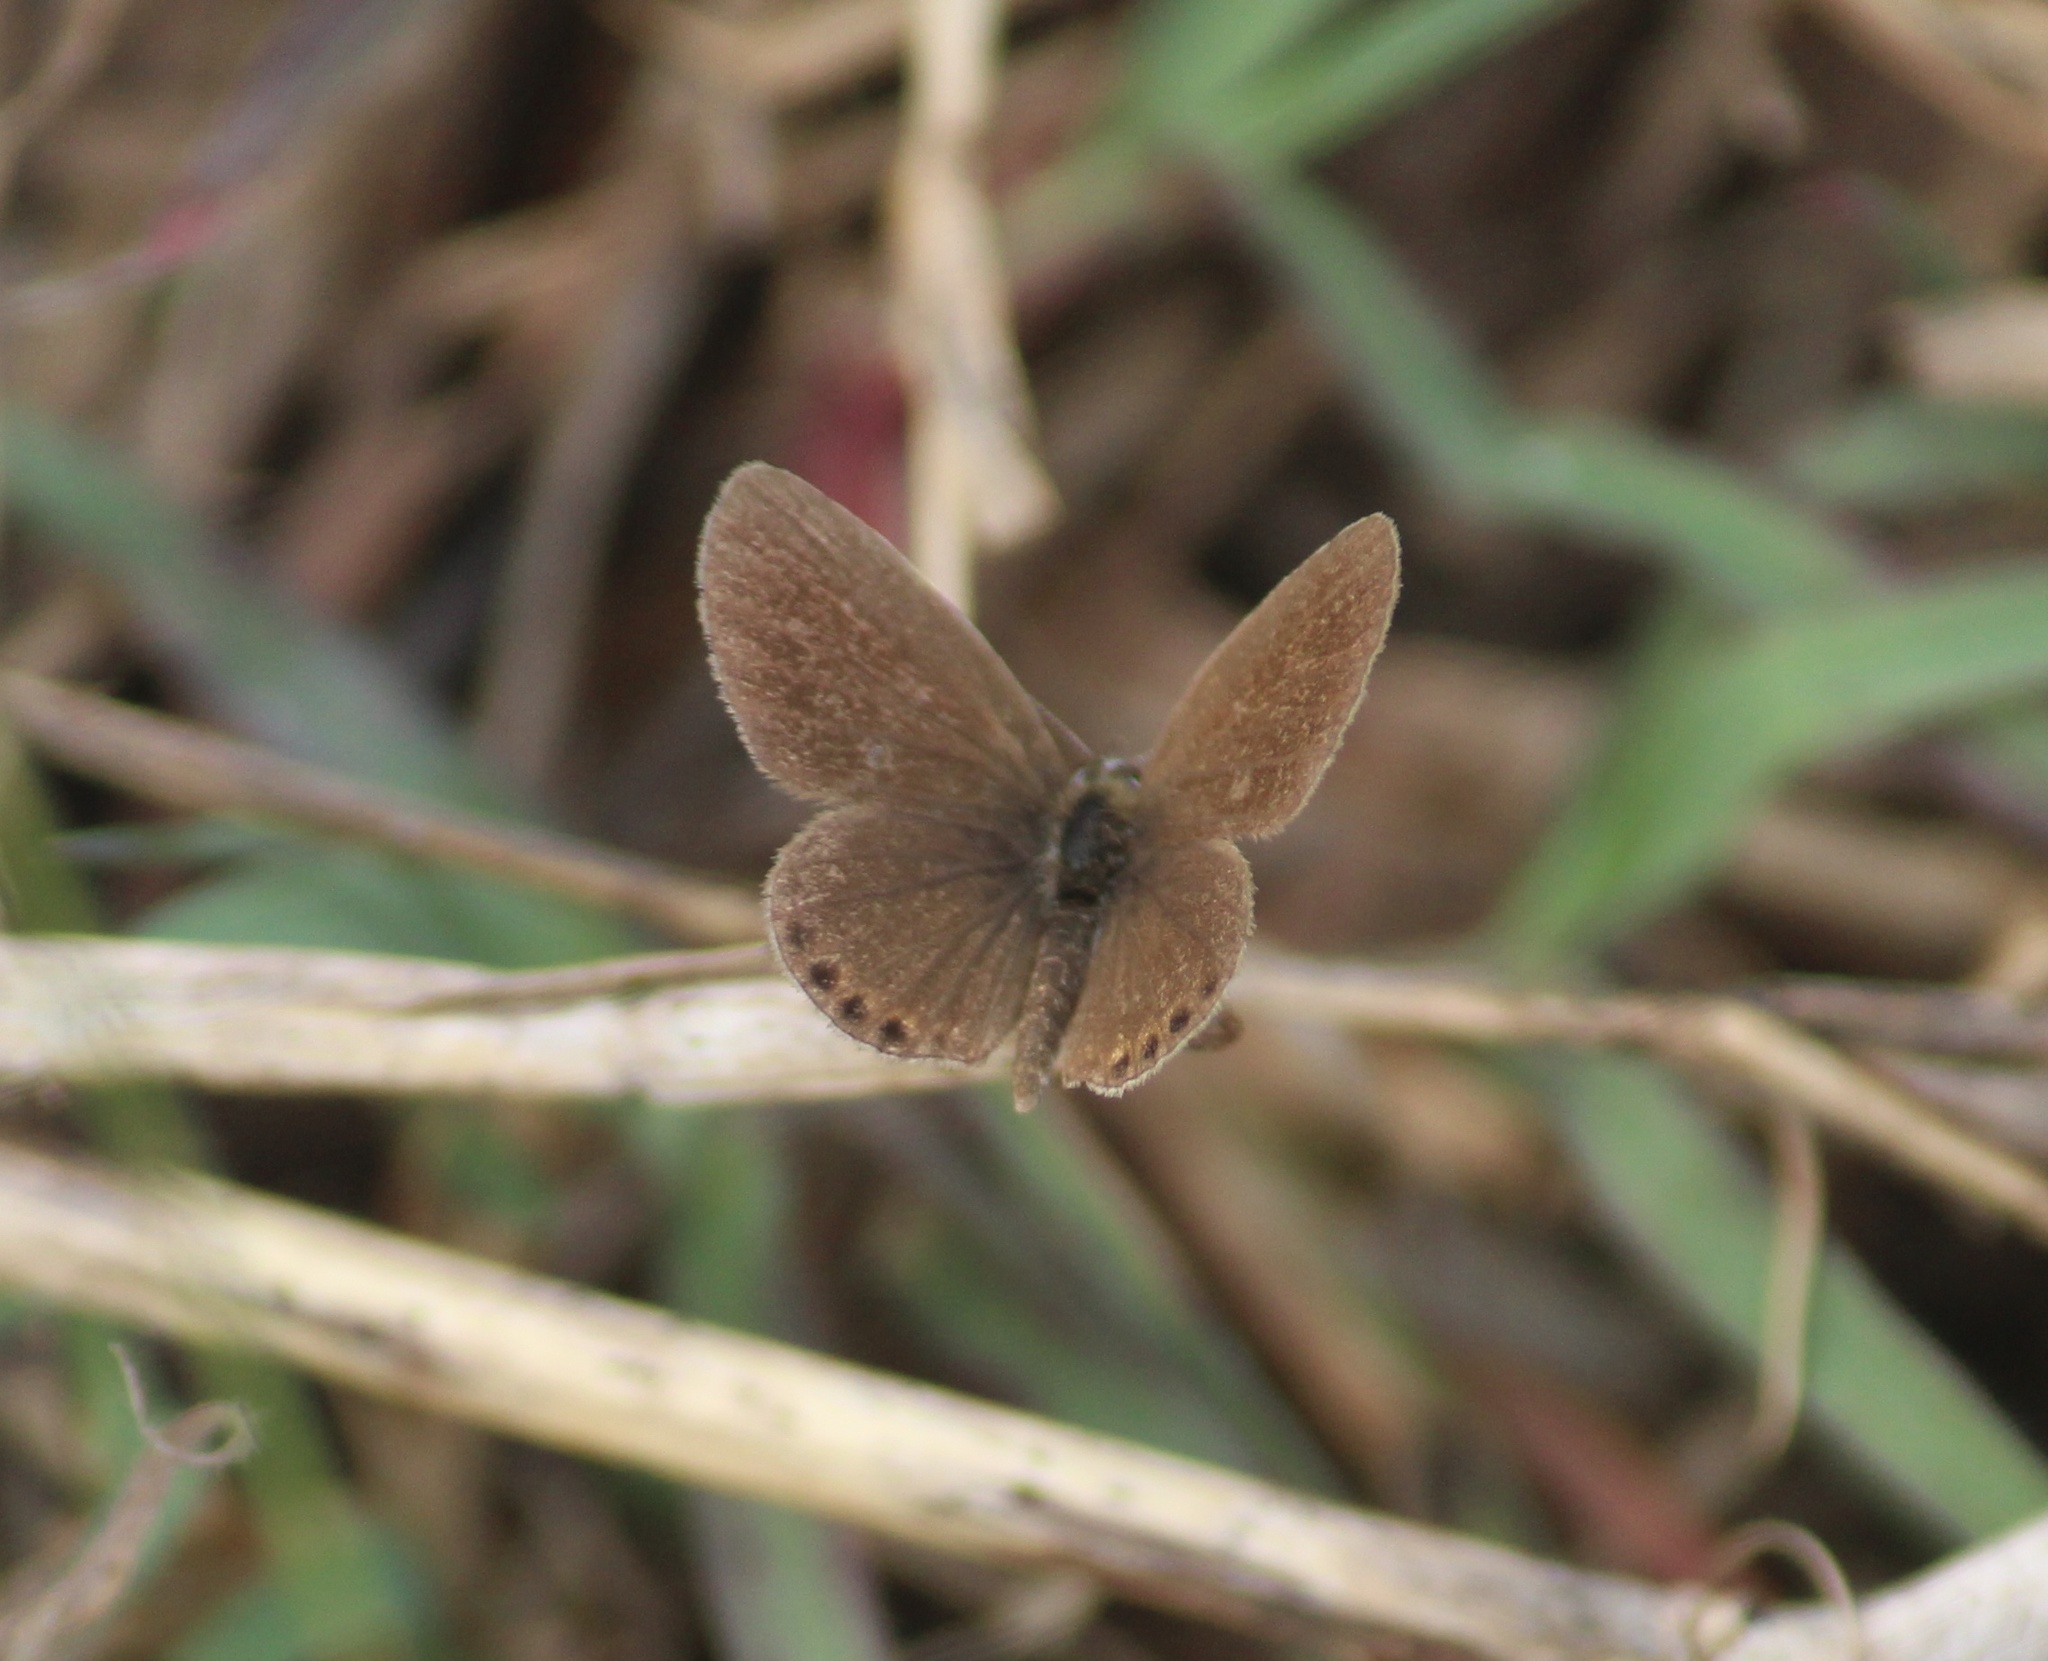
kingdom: Animalia
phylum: Arthropoda
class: Insecta
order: Lepidoptera
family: Lycaenidae
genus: Freyeria
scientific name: Freyeria putli
